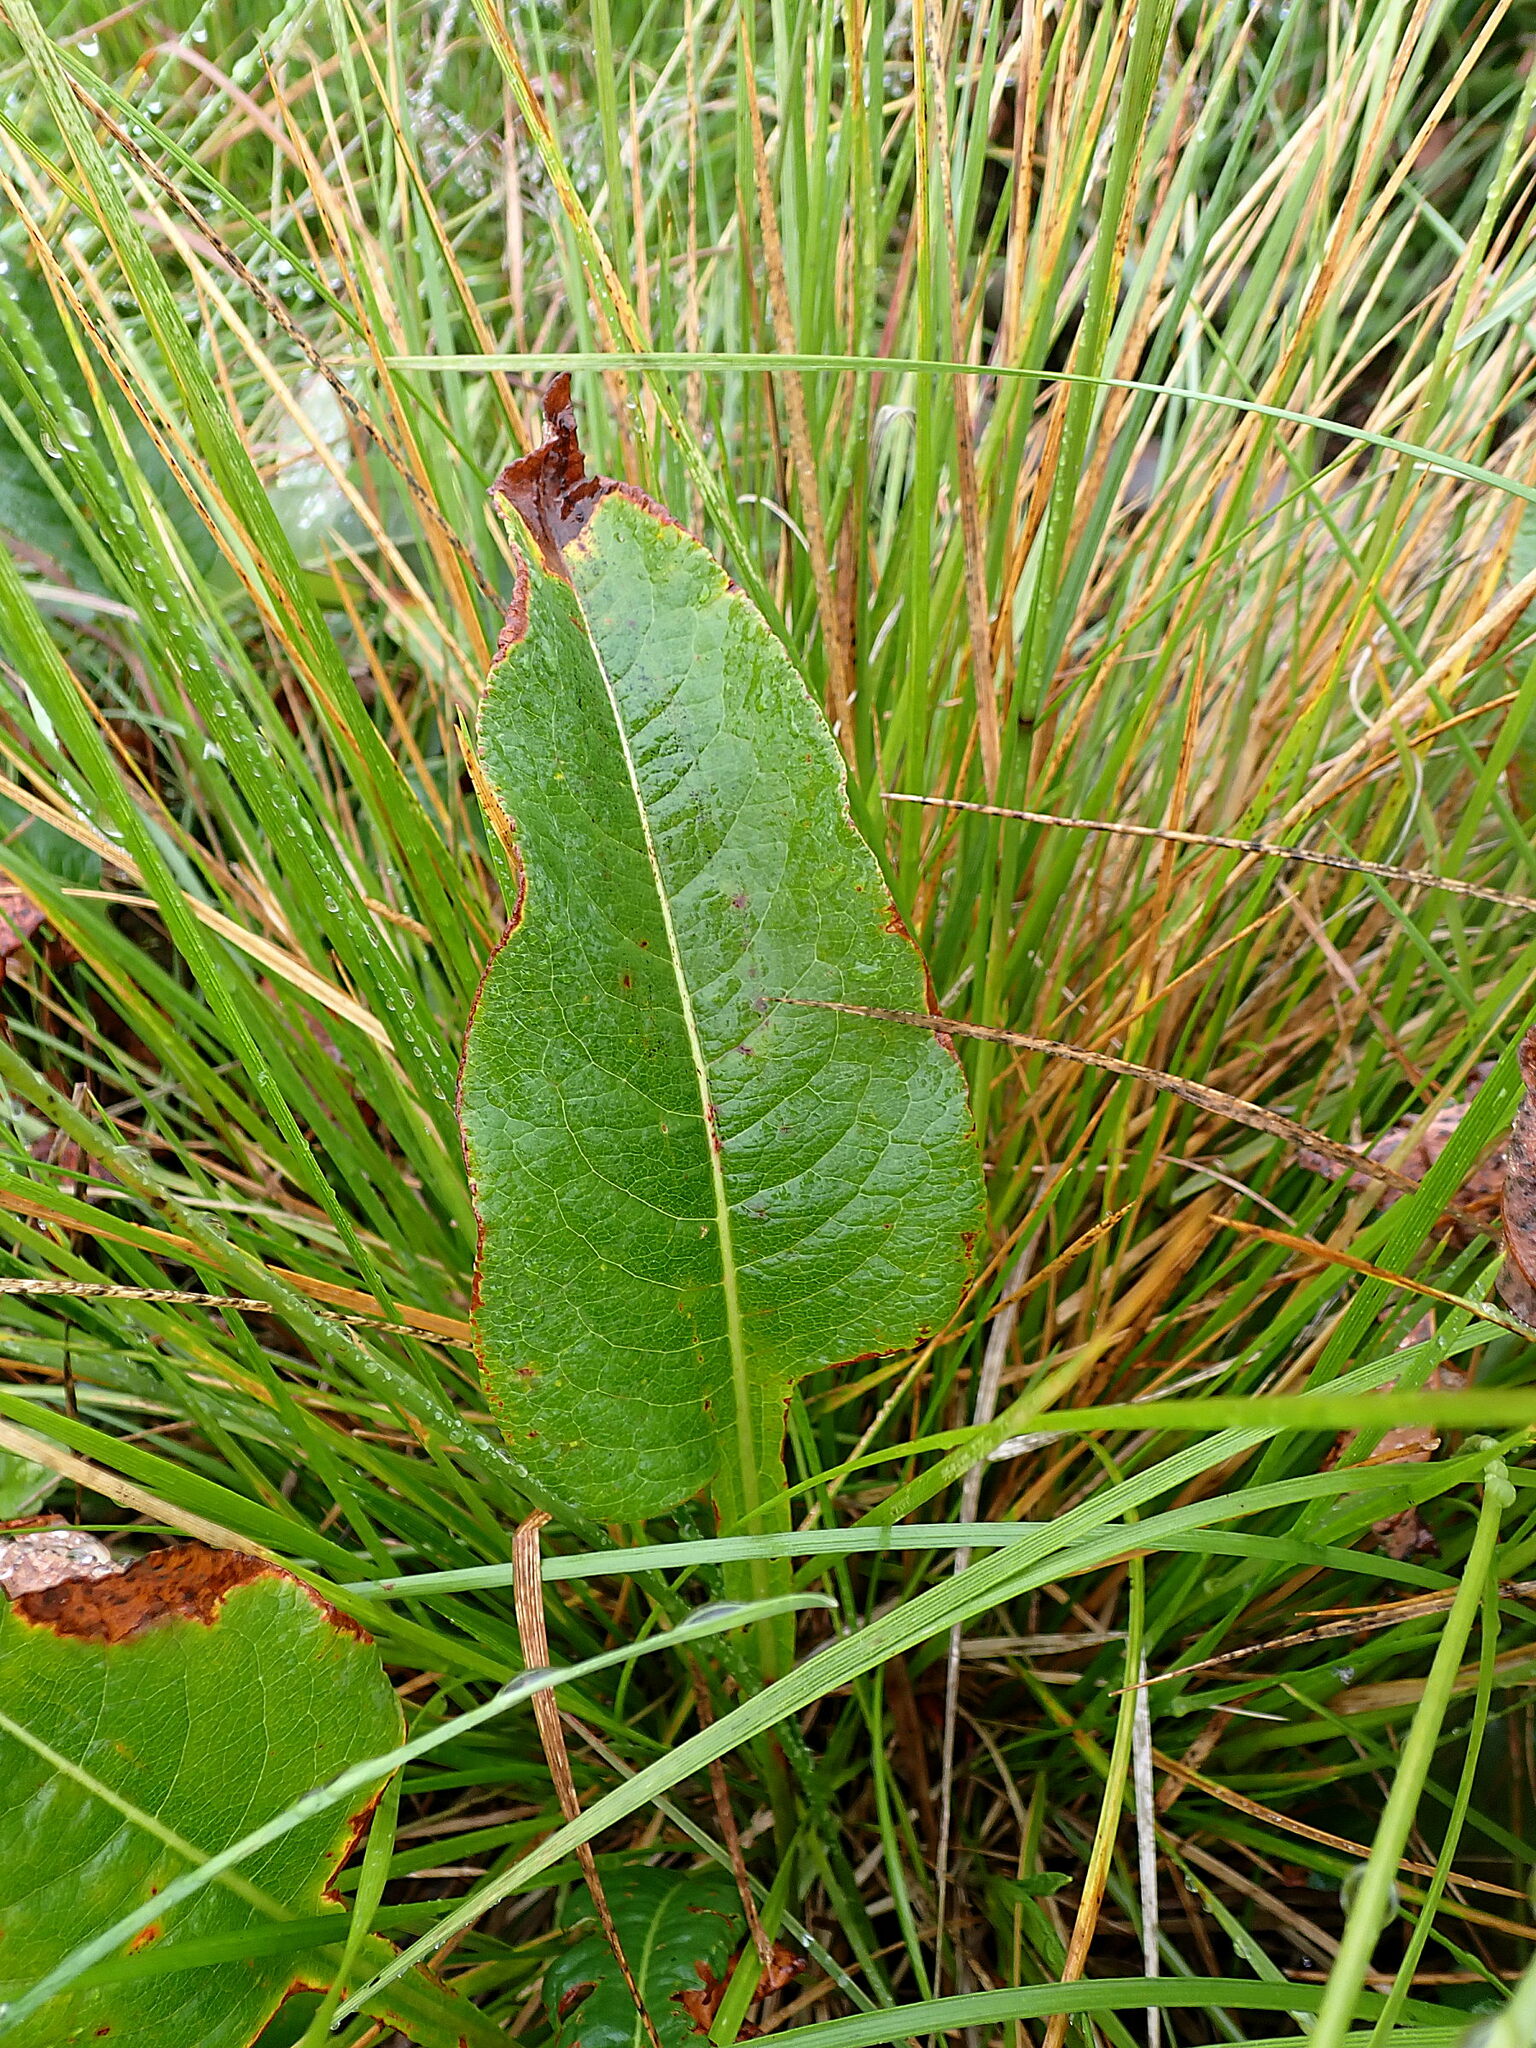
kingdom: Plantae
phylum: Tracheophyta
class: Magnoliopsida
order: Caryophyllales
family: Polygonaceae
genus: Bistorta
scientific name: Bistorta officinalis
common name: Common bistort
